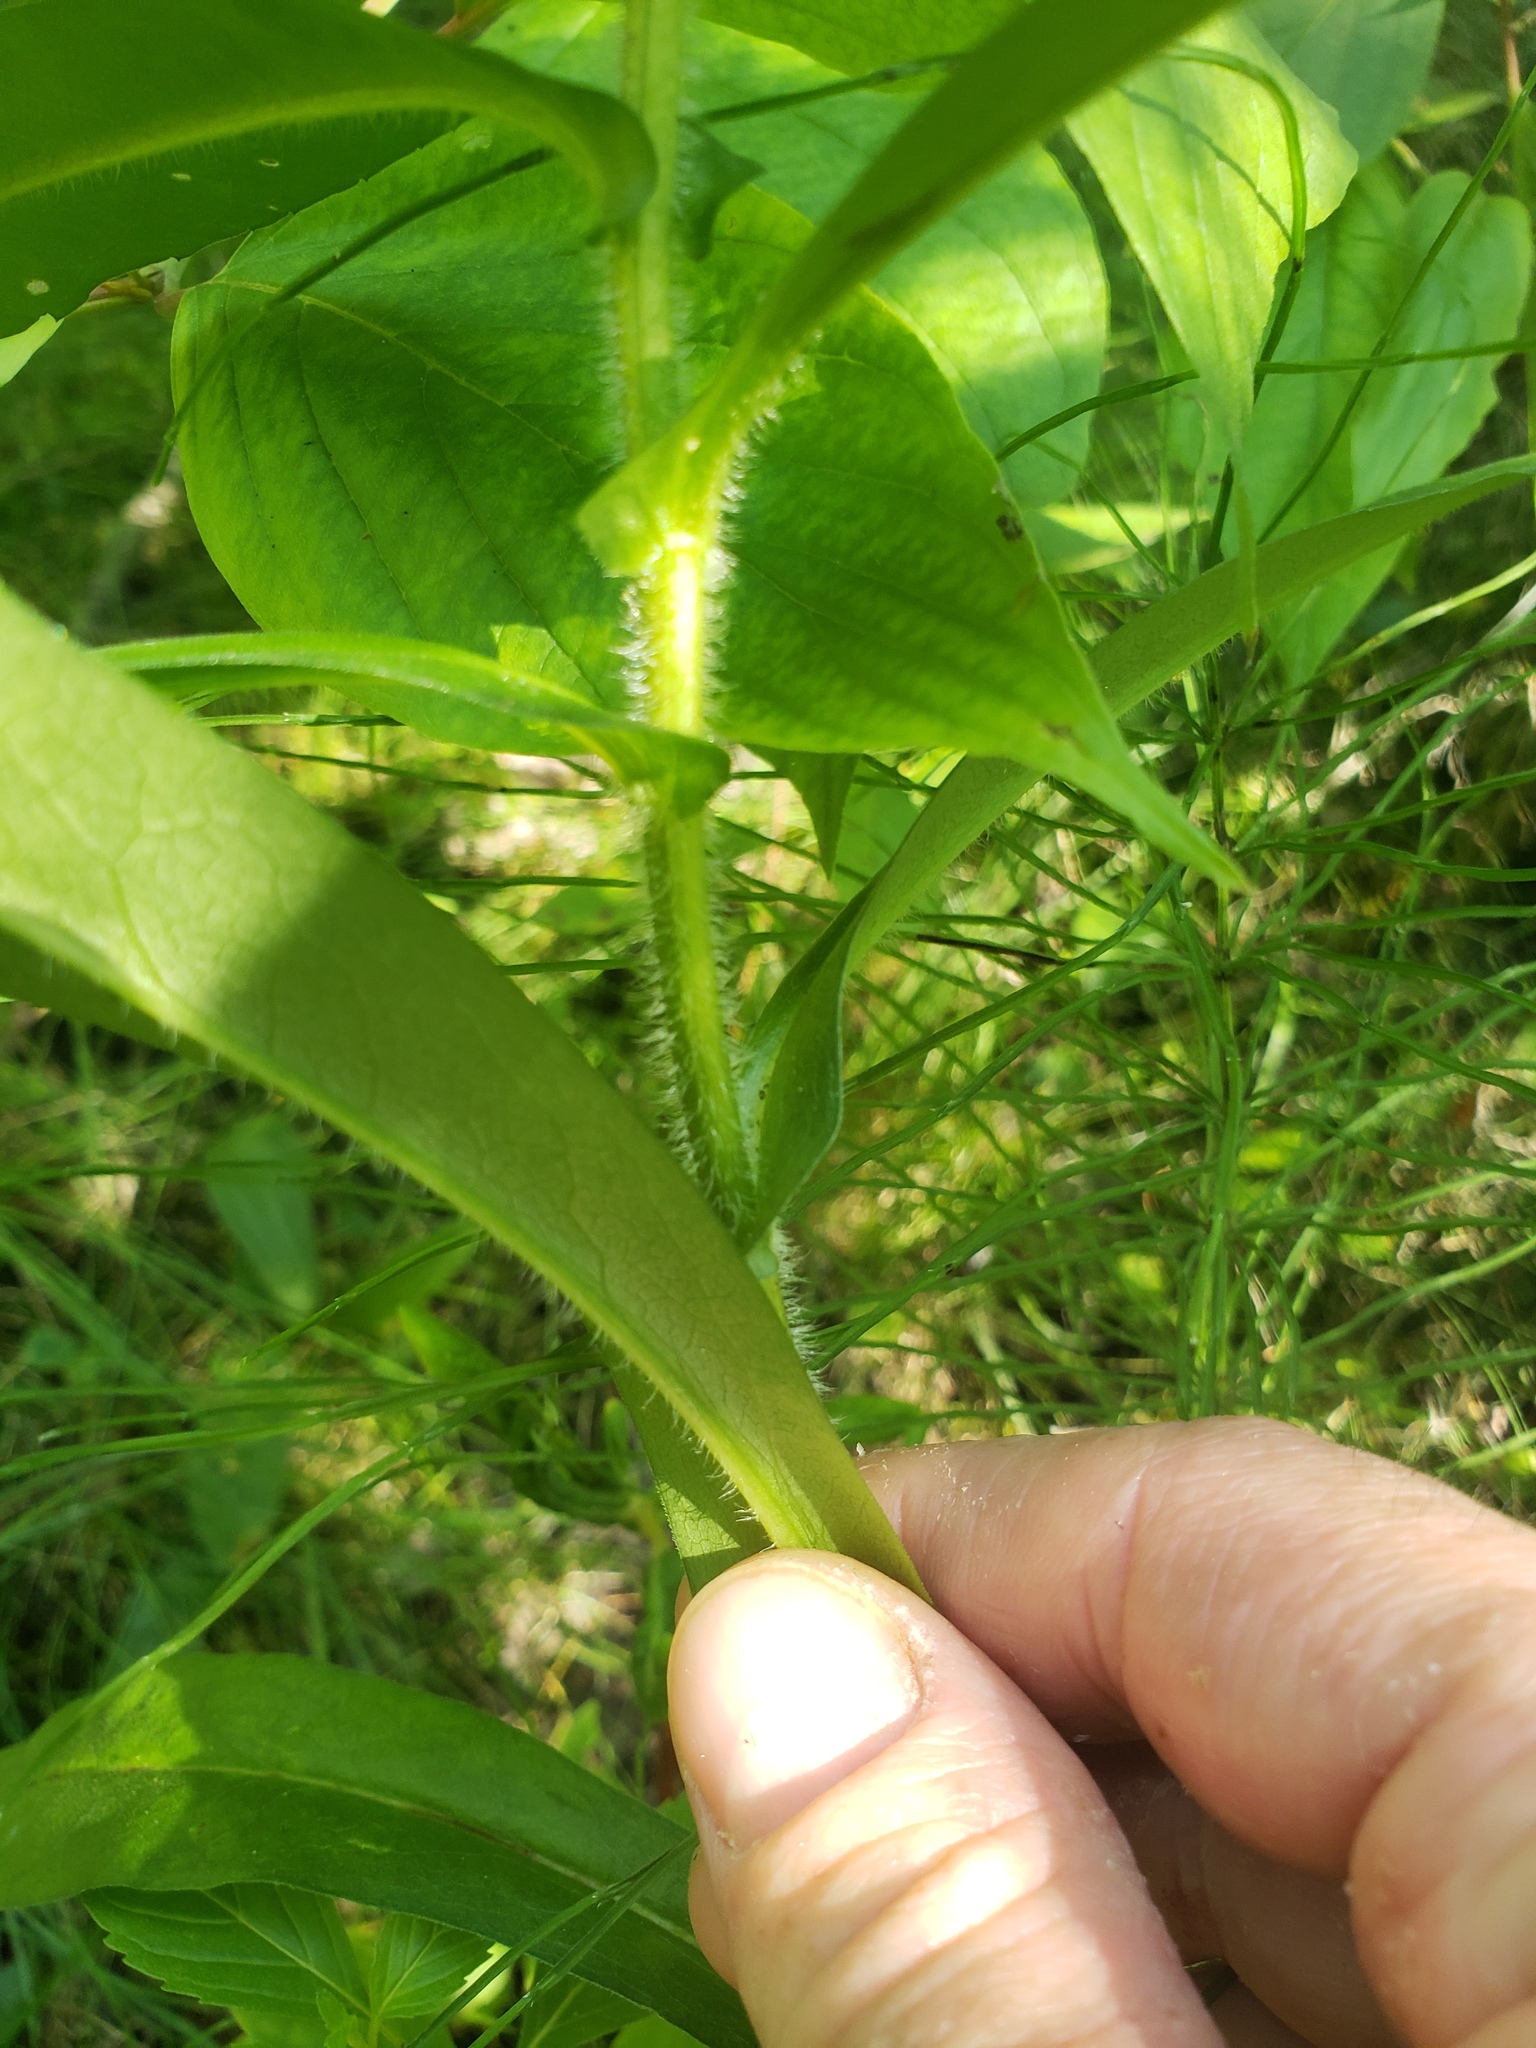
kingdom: Plantae
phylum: Tracheophyta
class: Magnoliopsida
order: Asterales
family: Asteraceae
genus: Symphyotrichum
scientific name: Symphyotrichum puniceum
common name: Bog aster
